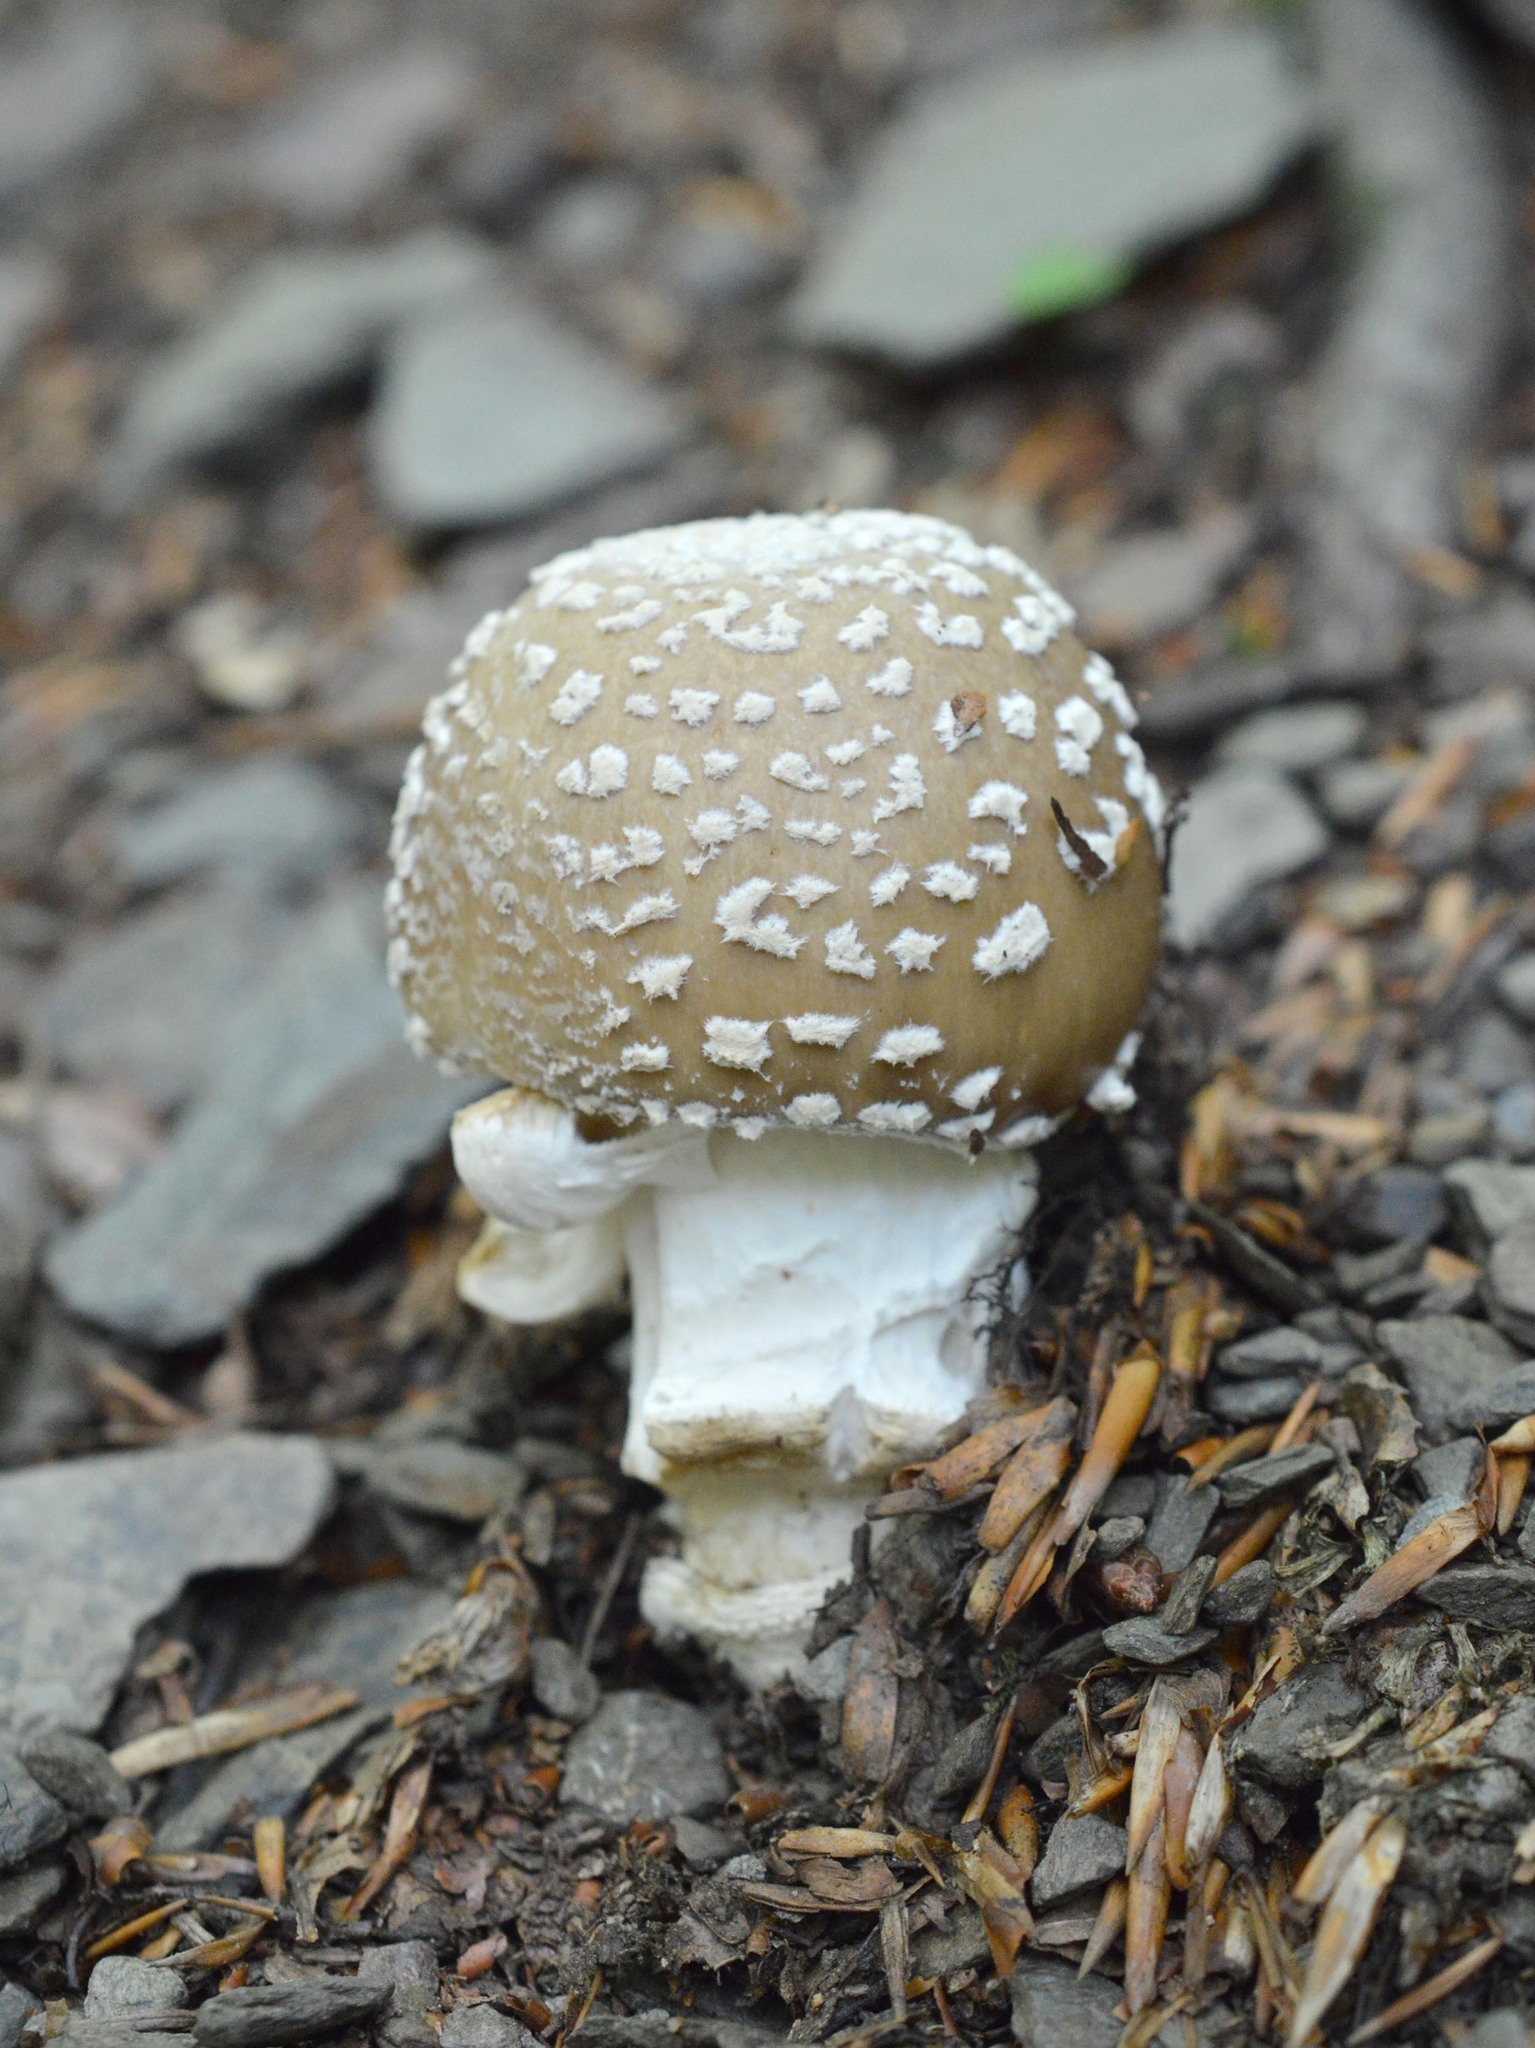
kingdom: Fungi
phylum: Basidiomycota
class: Agaricomycetes
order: Agaricales
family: Amanitaceae
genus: Amanita
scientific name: Amanita pantherina
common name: Panthercap
